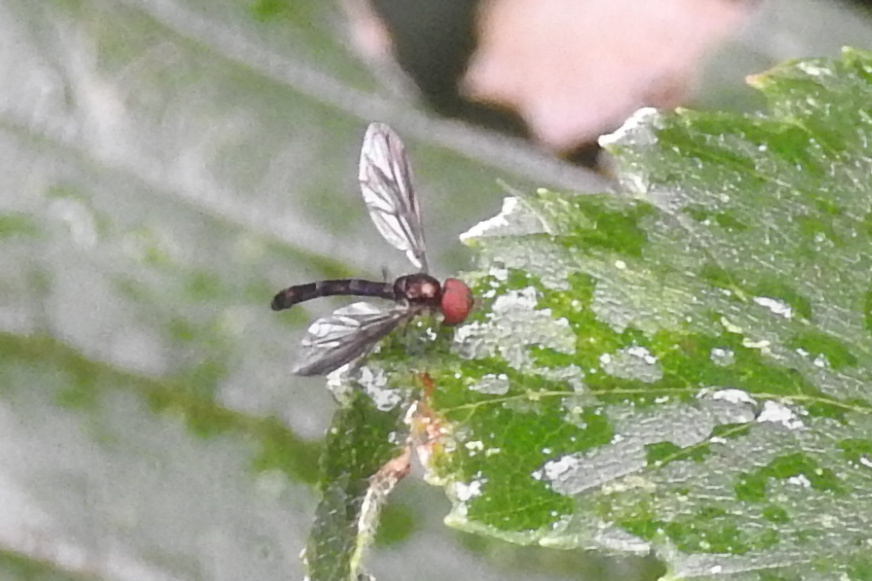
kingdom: Animalia
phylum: Arthropoda
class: Insecta
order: Diptera
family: Syrphidae
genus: Ocyptamus
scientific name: Ocyptamus fuscipennis
